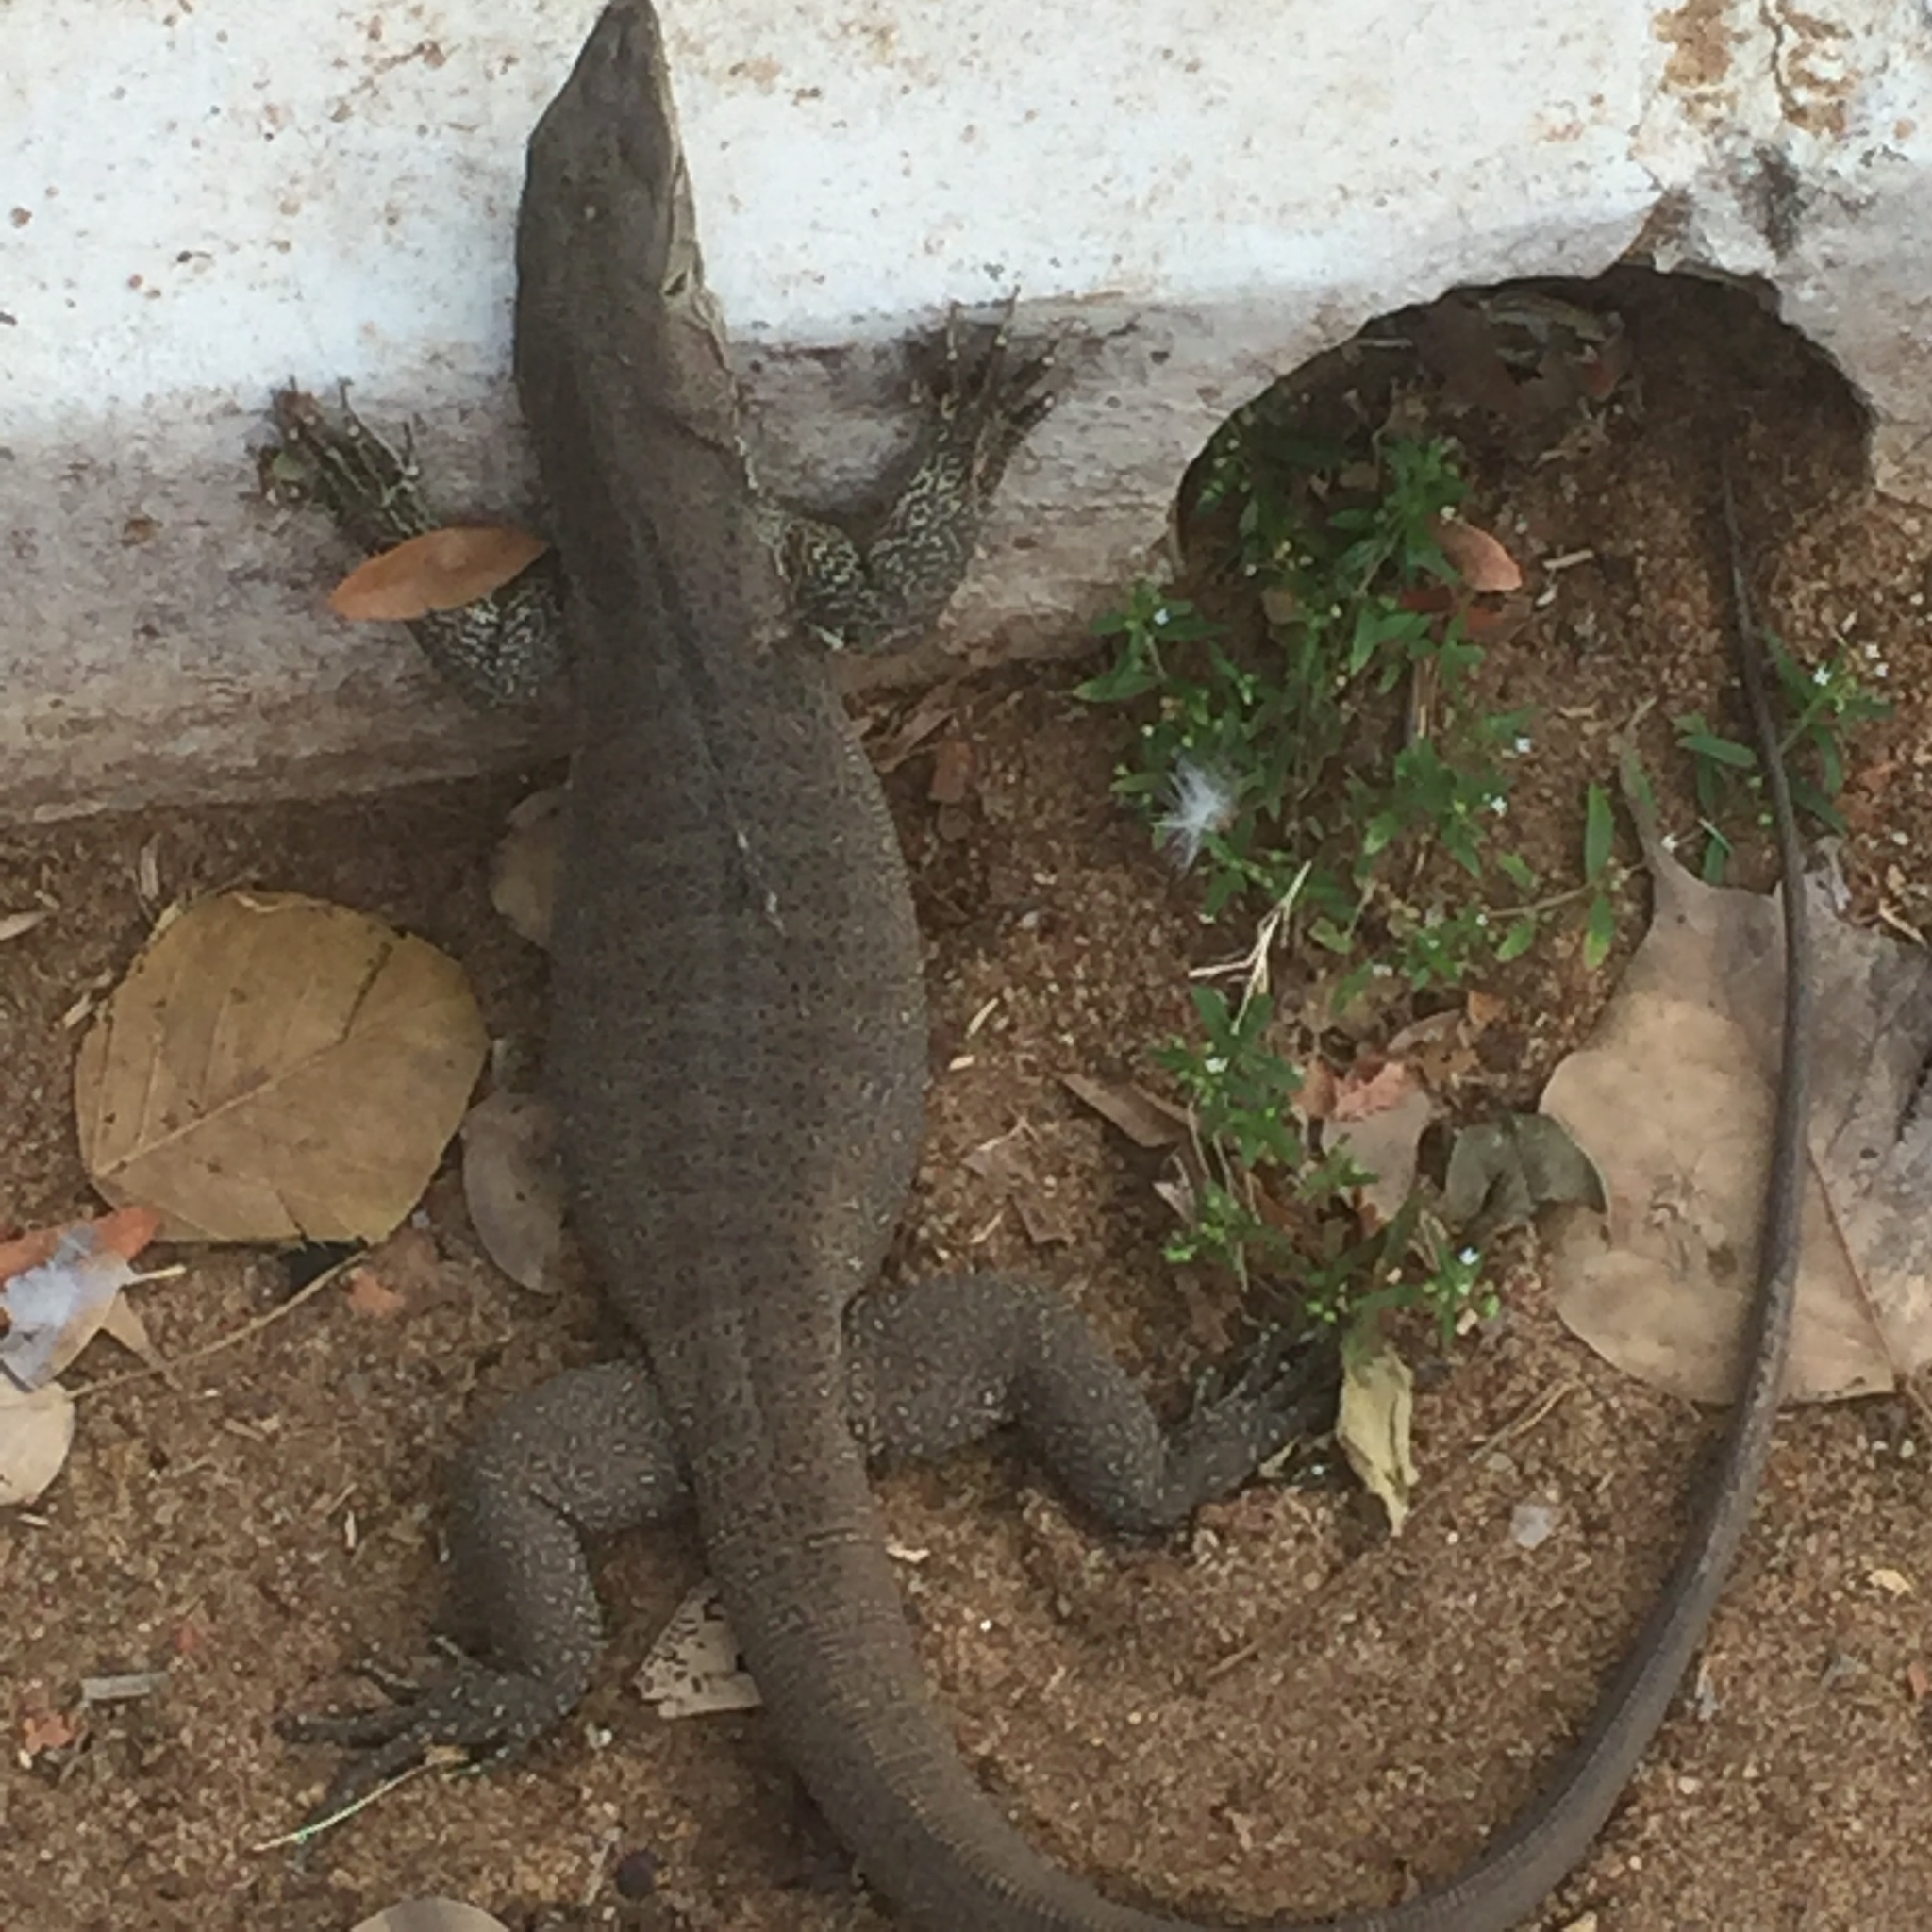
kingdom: Animalia
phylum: Chordata
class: Squamata
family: Varanidae
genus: Varanus
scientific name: Varanus bengalensis
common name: Bengal monitor
